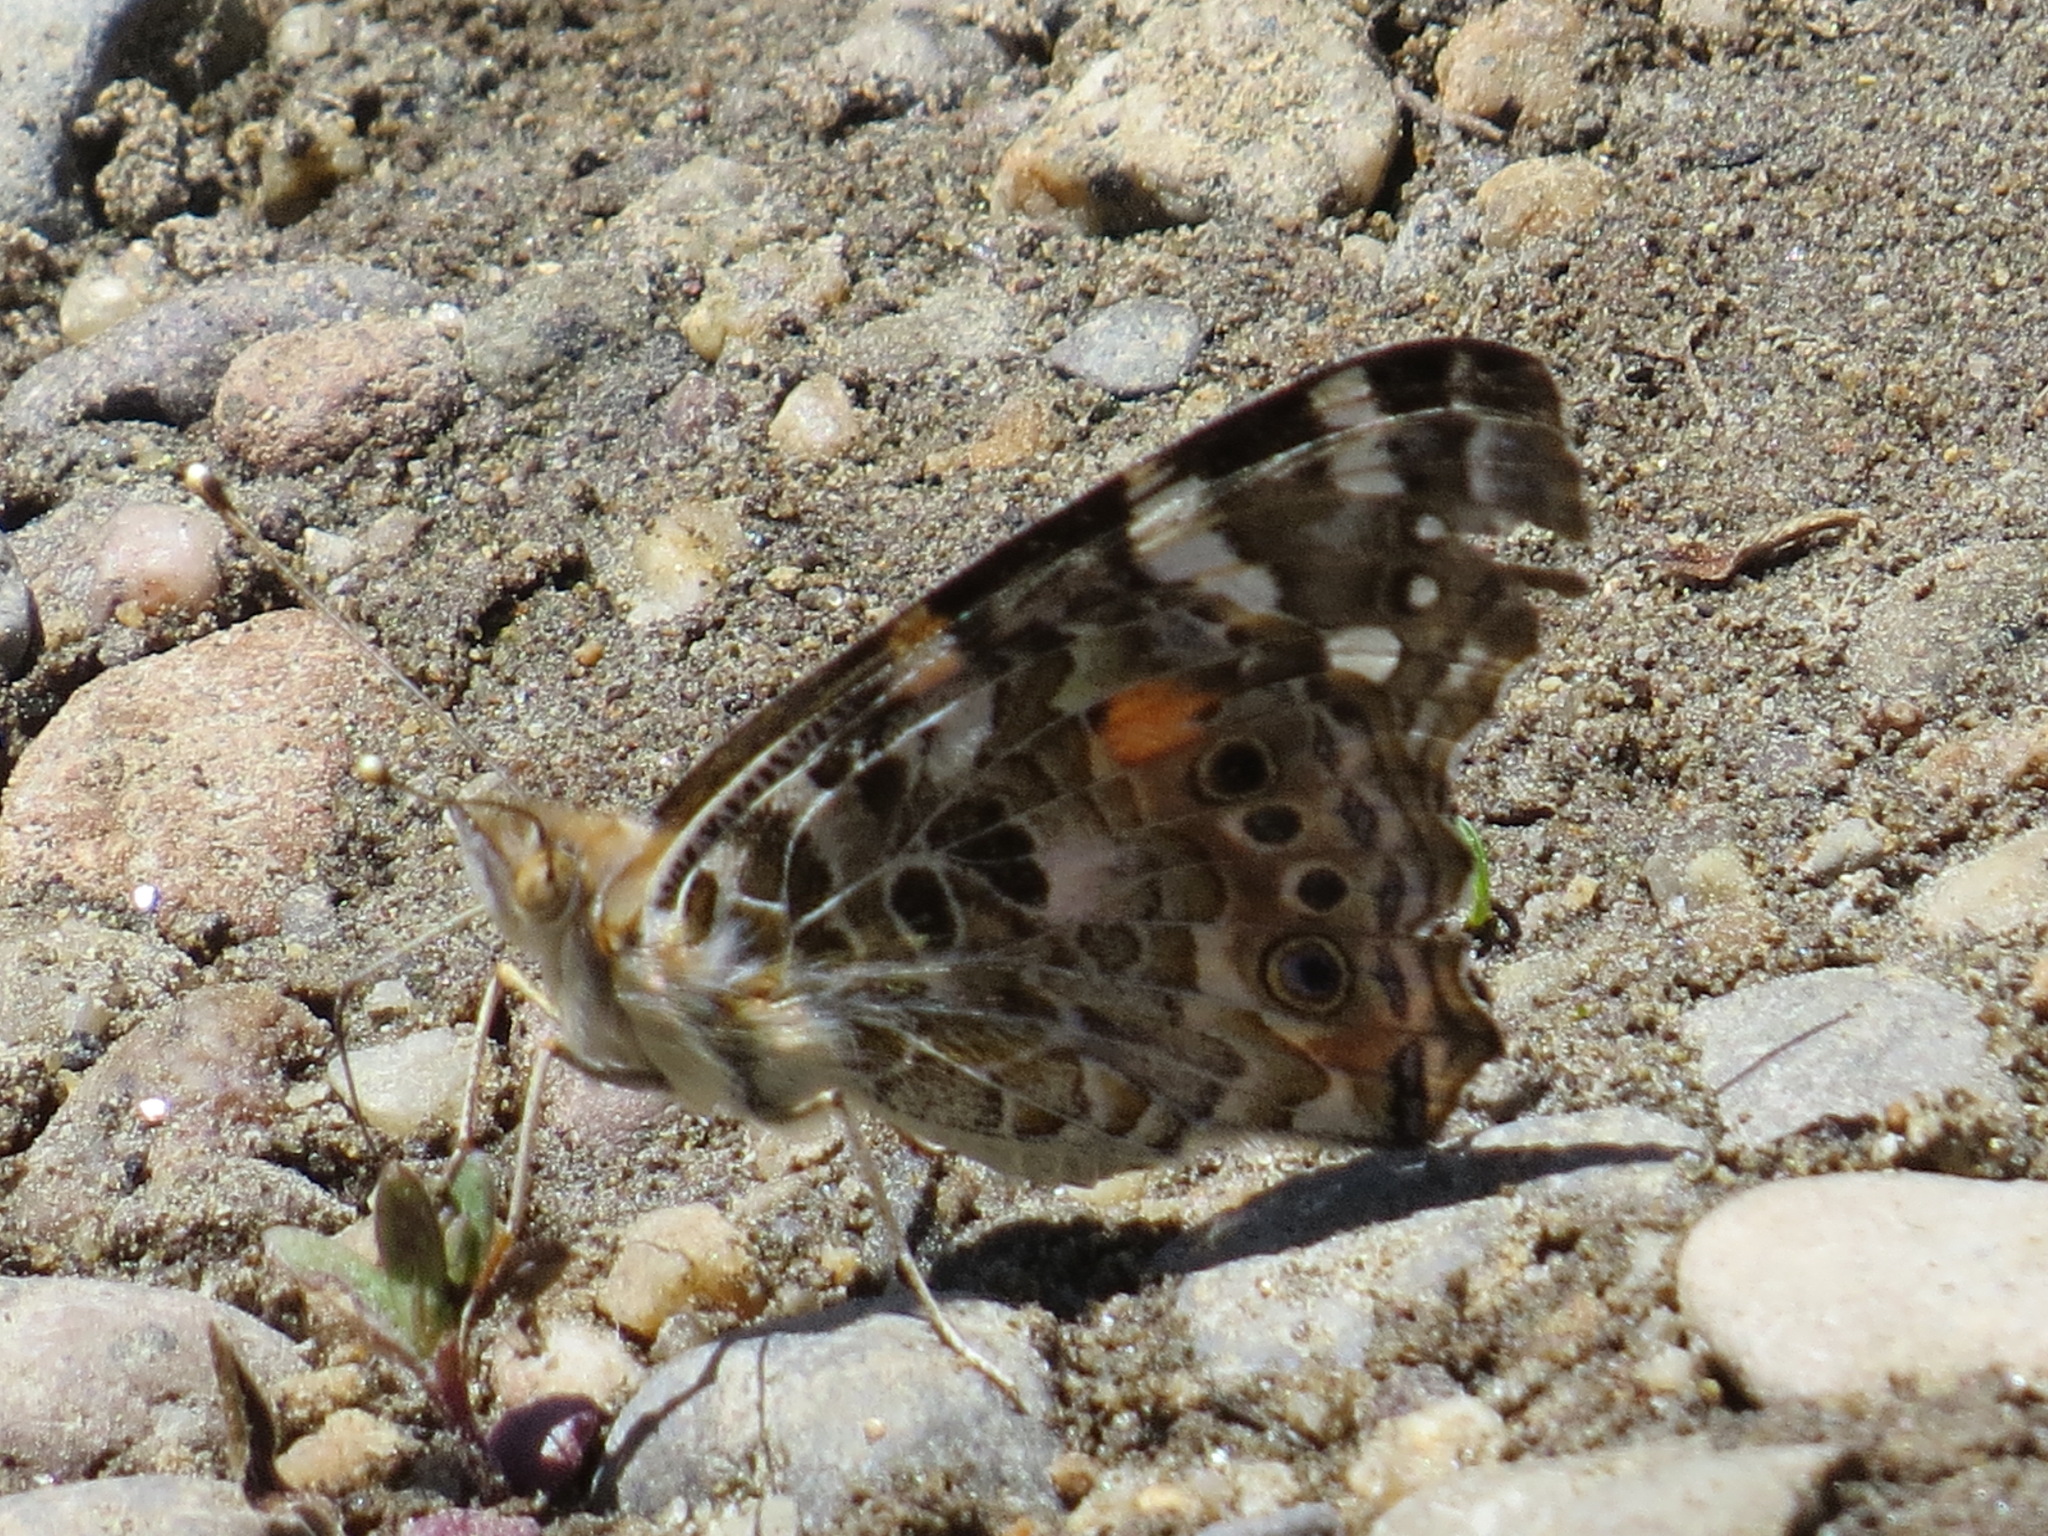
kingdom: Animalia
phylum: Arthropoda
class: Insecta
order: Lepidoptera
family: Nymphalidae
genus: Vanessa
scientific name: Vanessa cardui
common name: Painted lady
